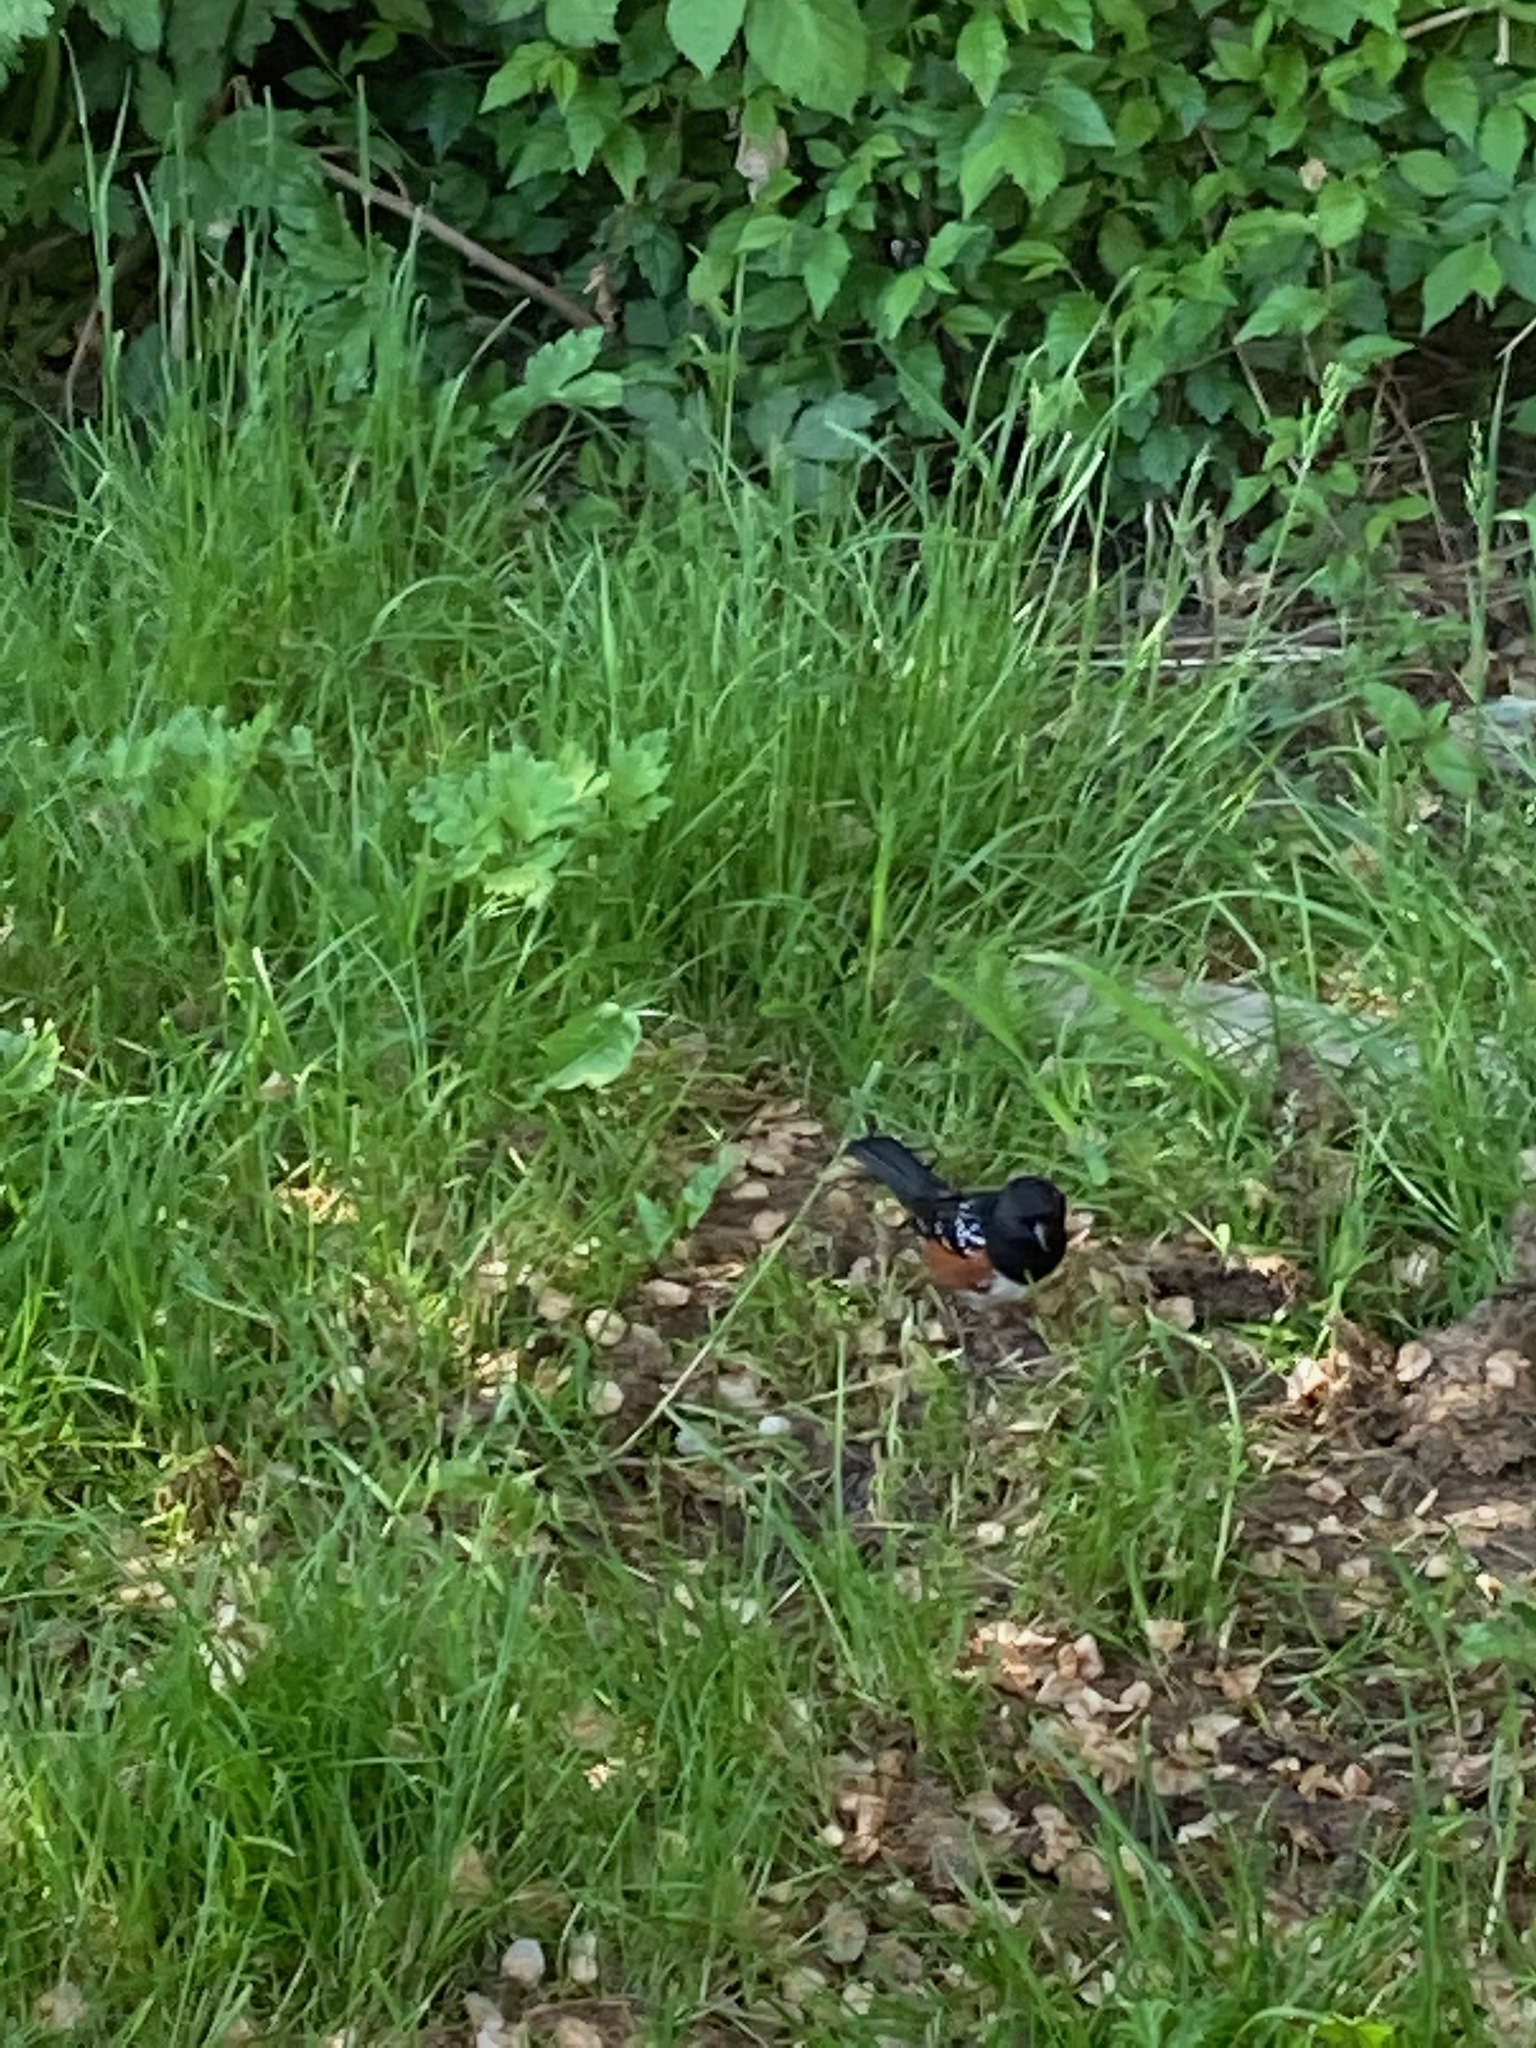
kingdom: Animalia
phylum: Chordata
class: Aves
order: Passeriformes
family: Passerellidae
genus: Pipilo
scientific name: Pipilo maculatus
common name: Spotted towhee
